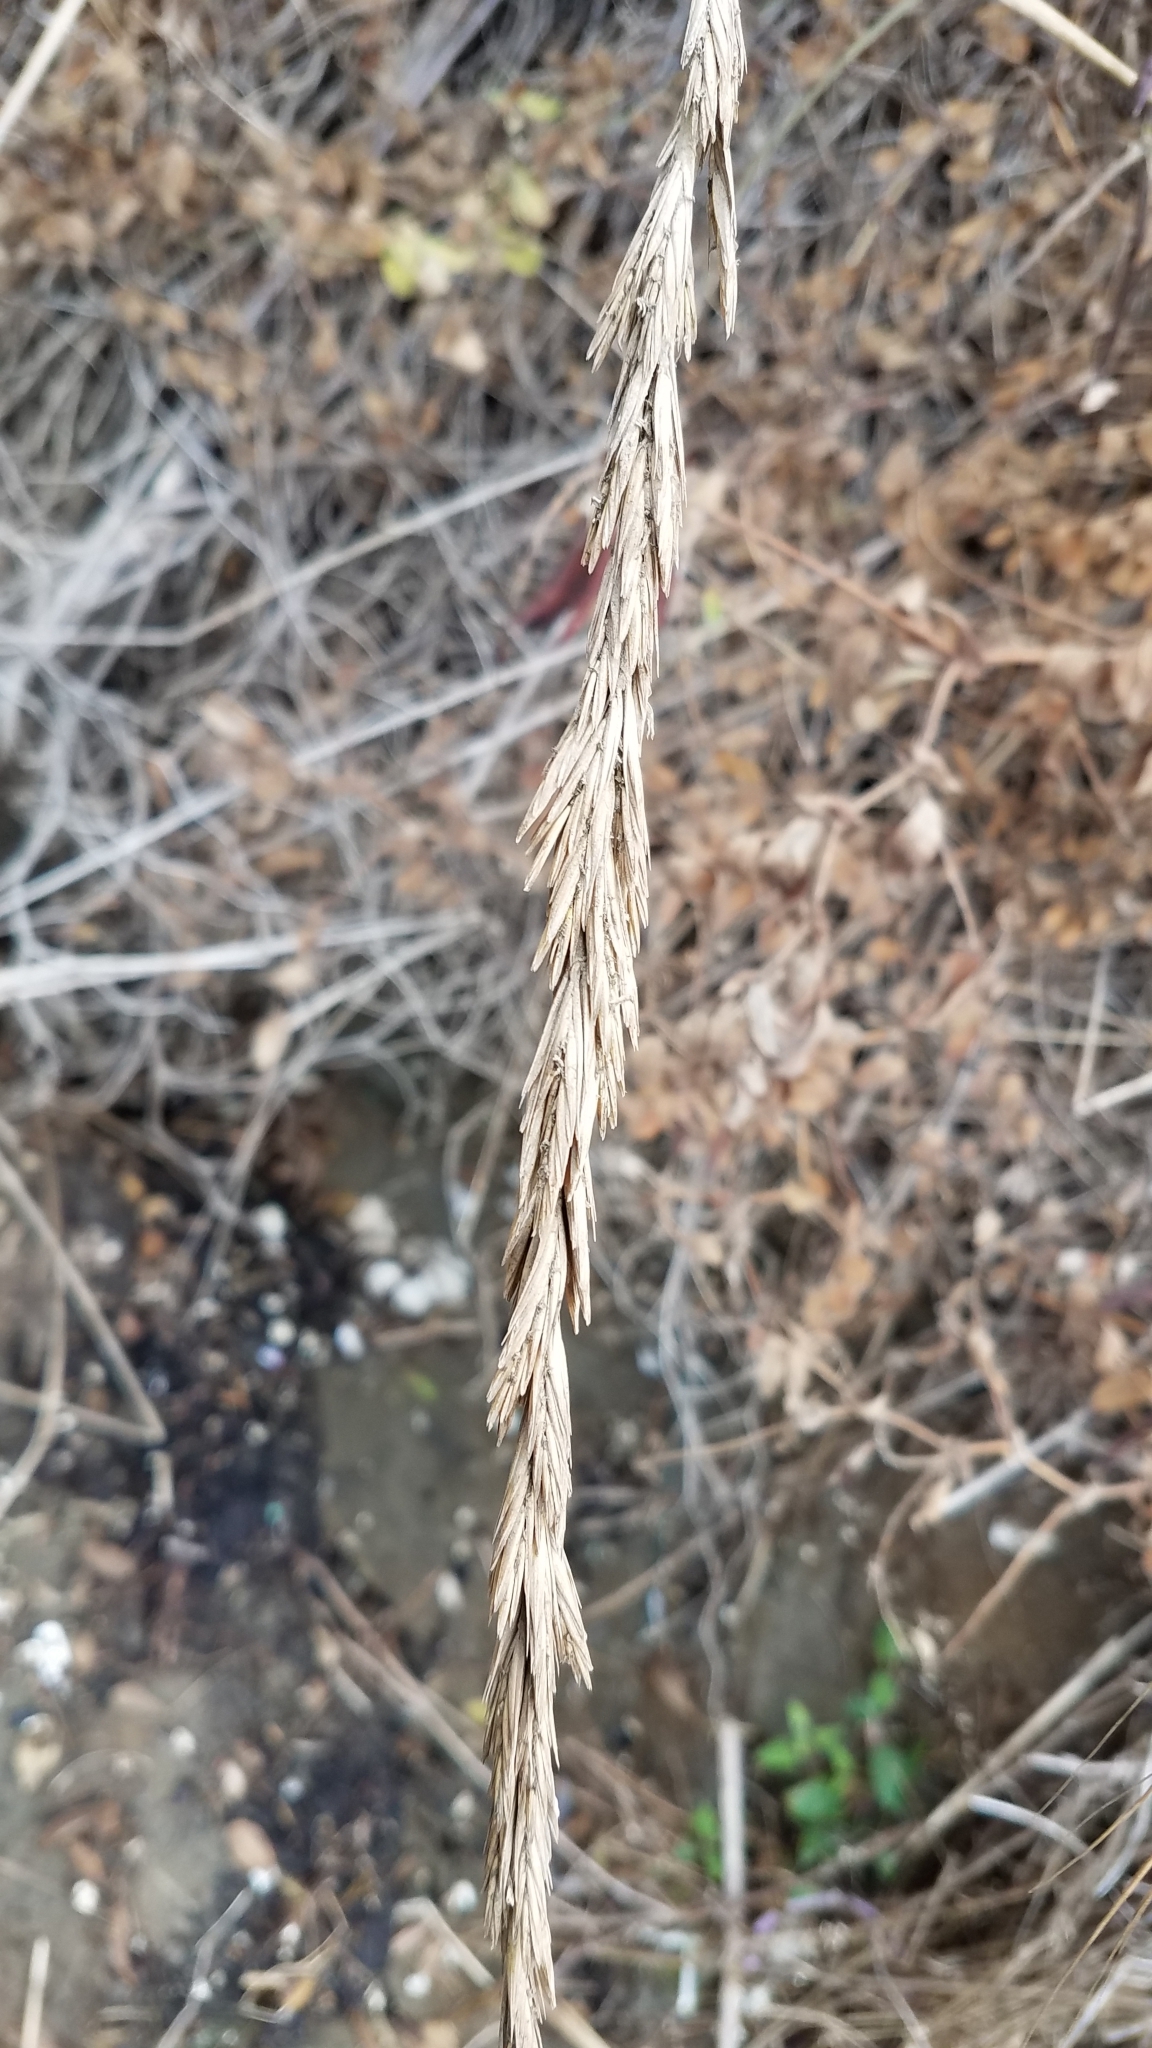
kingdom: Plantae
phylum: Tracheophyta
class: Liliopsida
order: Poales
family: Poaceae
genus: Leymus
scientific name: Leymus condensatus
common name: Giant wild rye
